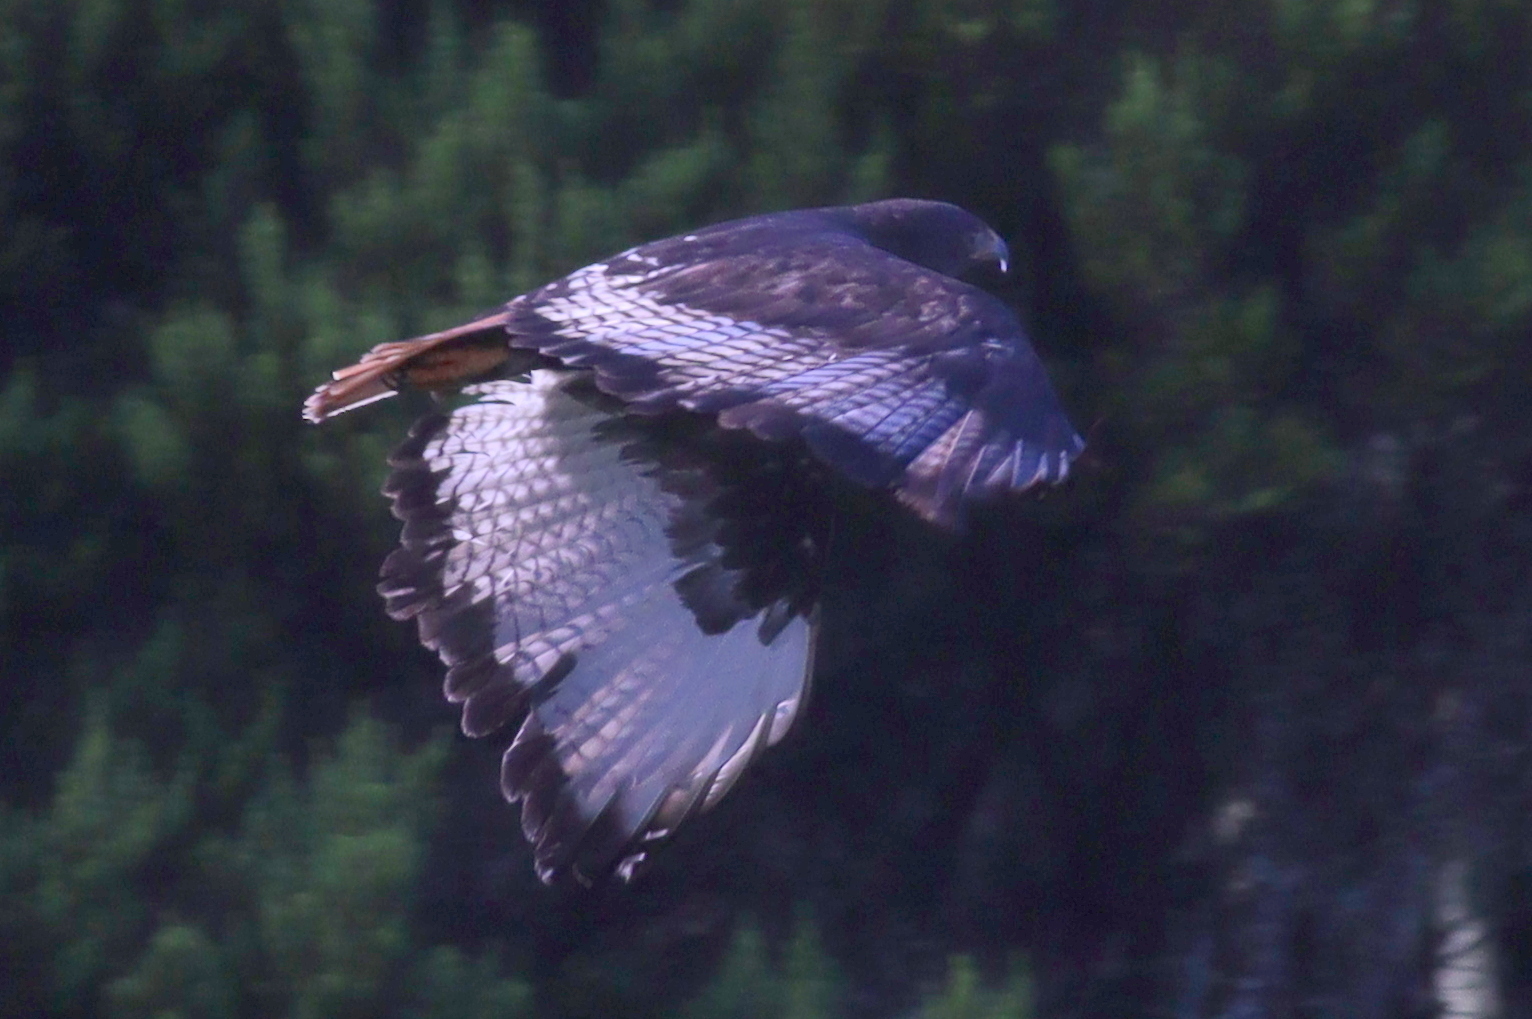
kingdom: Animalia
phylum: Chordata
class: Aves
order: Accipitriformes
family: Accipitridae
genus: Buteo
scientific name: Buteo augur
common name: Augur buzzard
